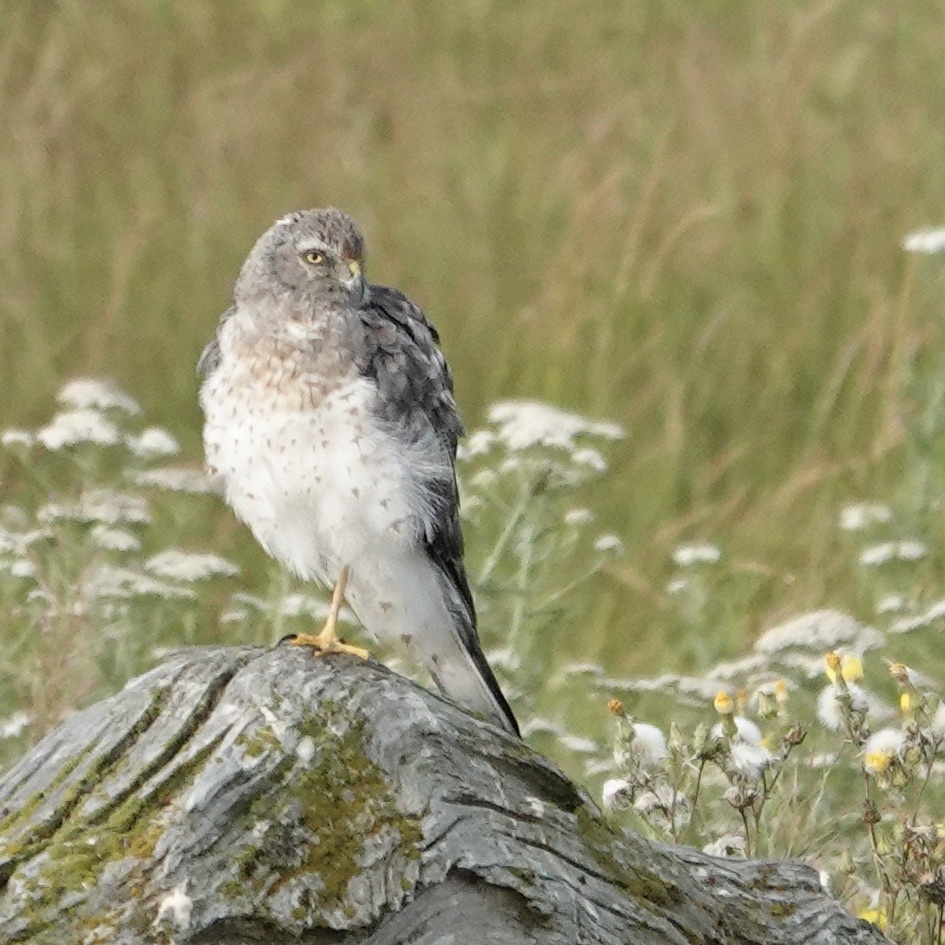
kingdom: Animalia
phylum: Chordata
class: Aves
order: Accipitriformes
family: Accipitridae
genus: Circus
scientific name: Circus cyaneus
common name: Hen harrier
